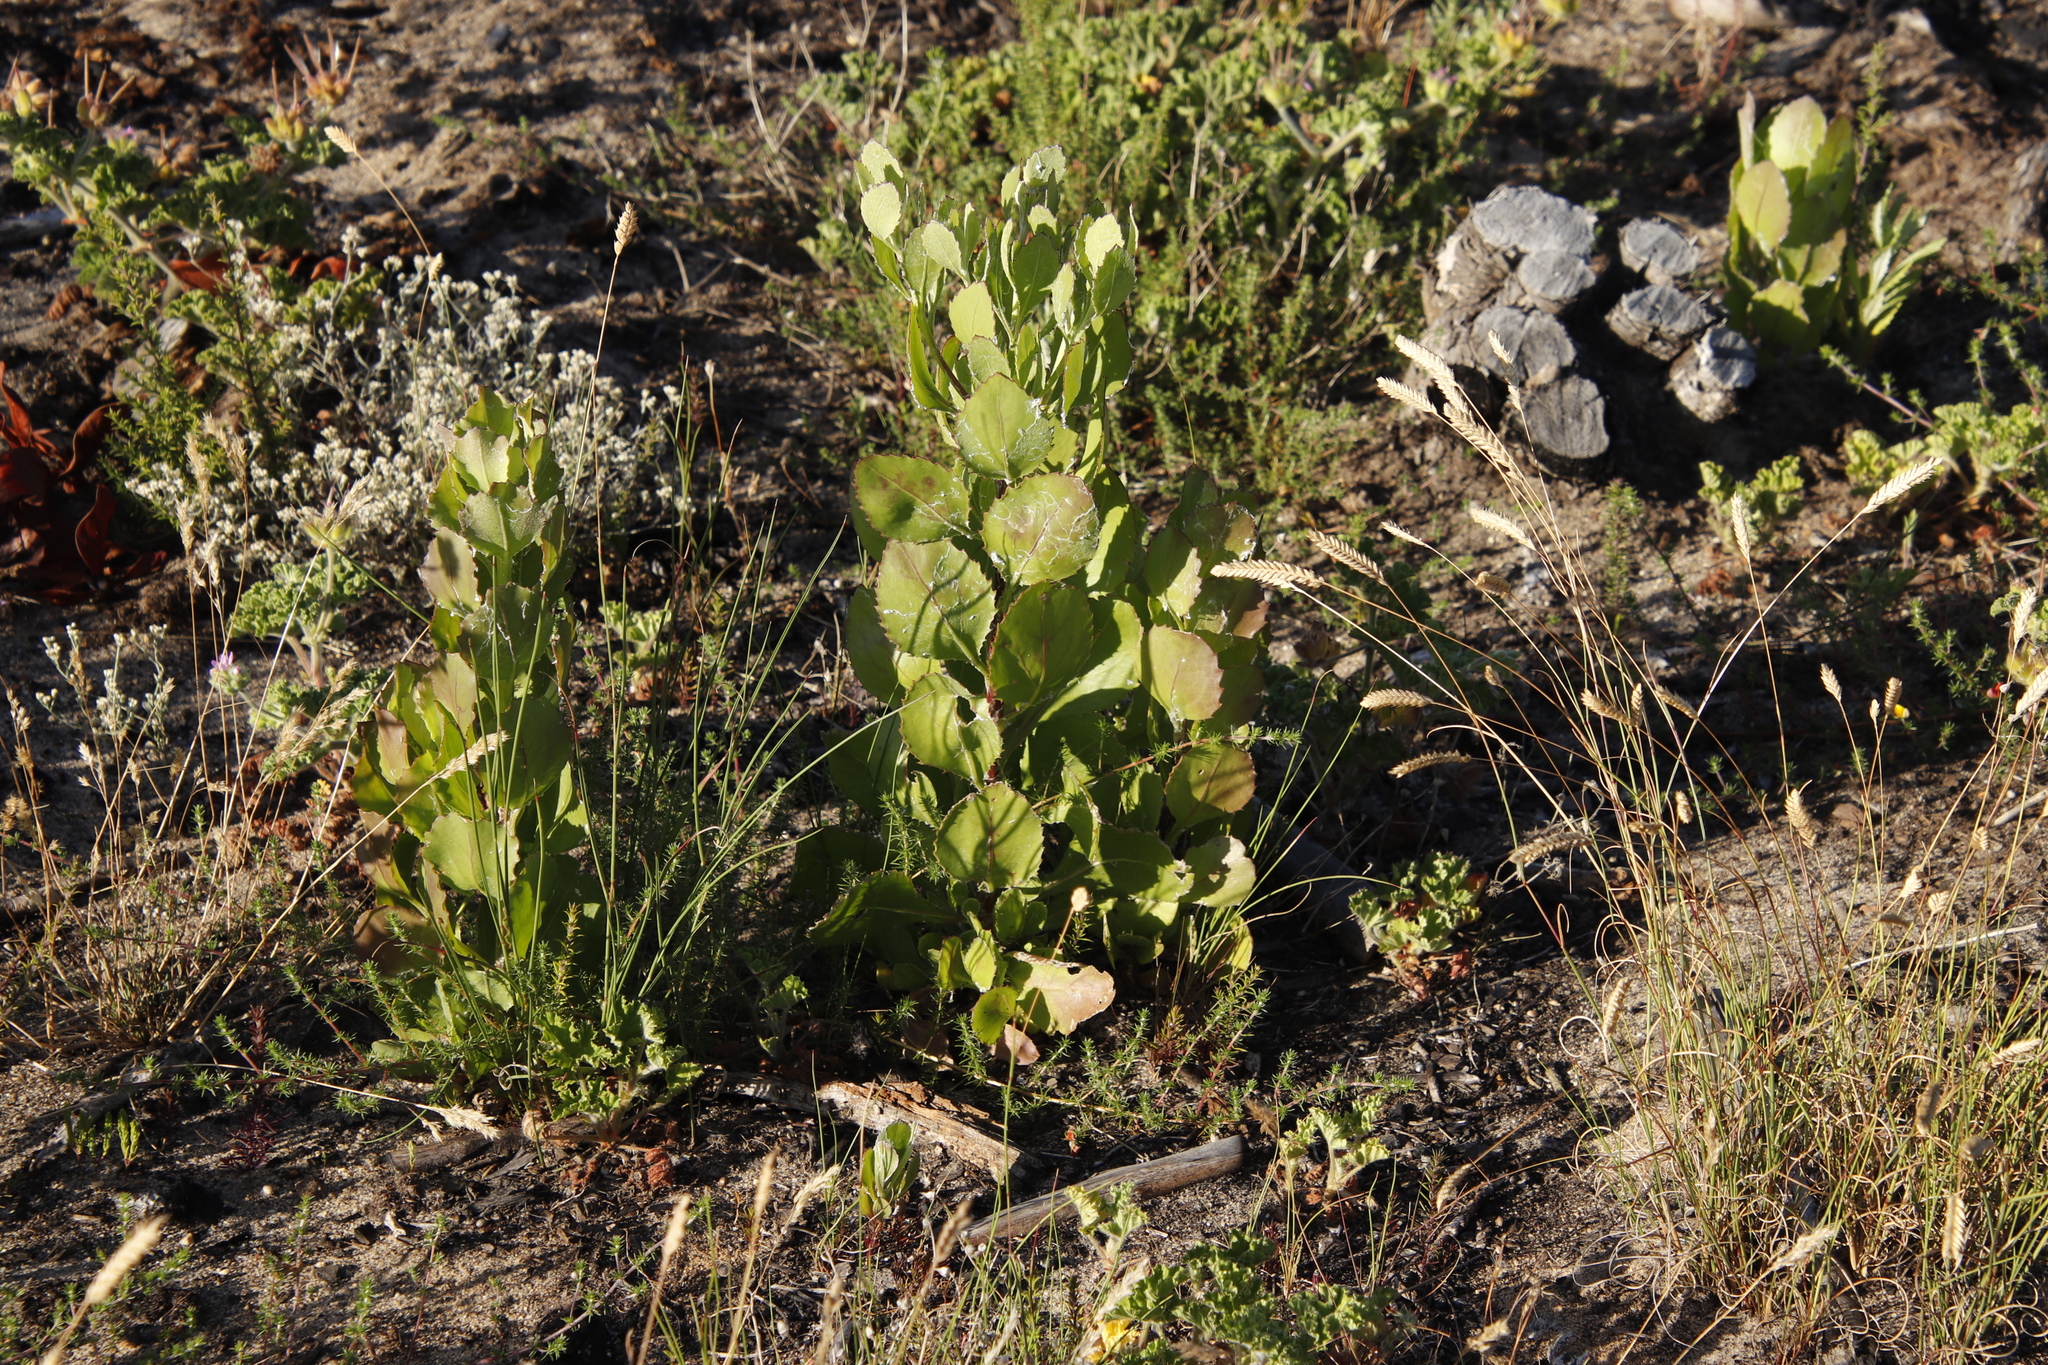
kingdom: Plantae
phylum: Tracheophyta
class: Magnoliopsida
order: Asterales
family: Asteraceae
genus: Osteospermum
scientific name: Osteospermum moniliferum
